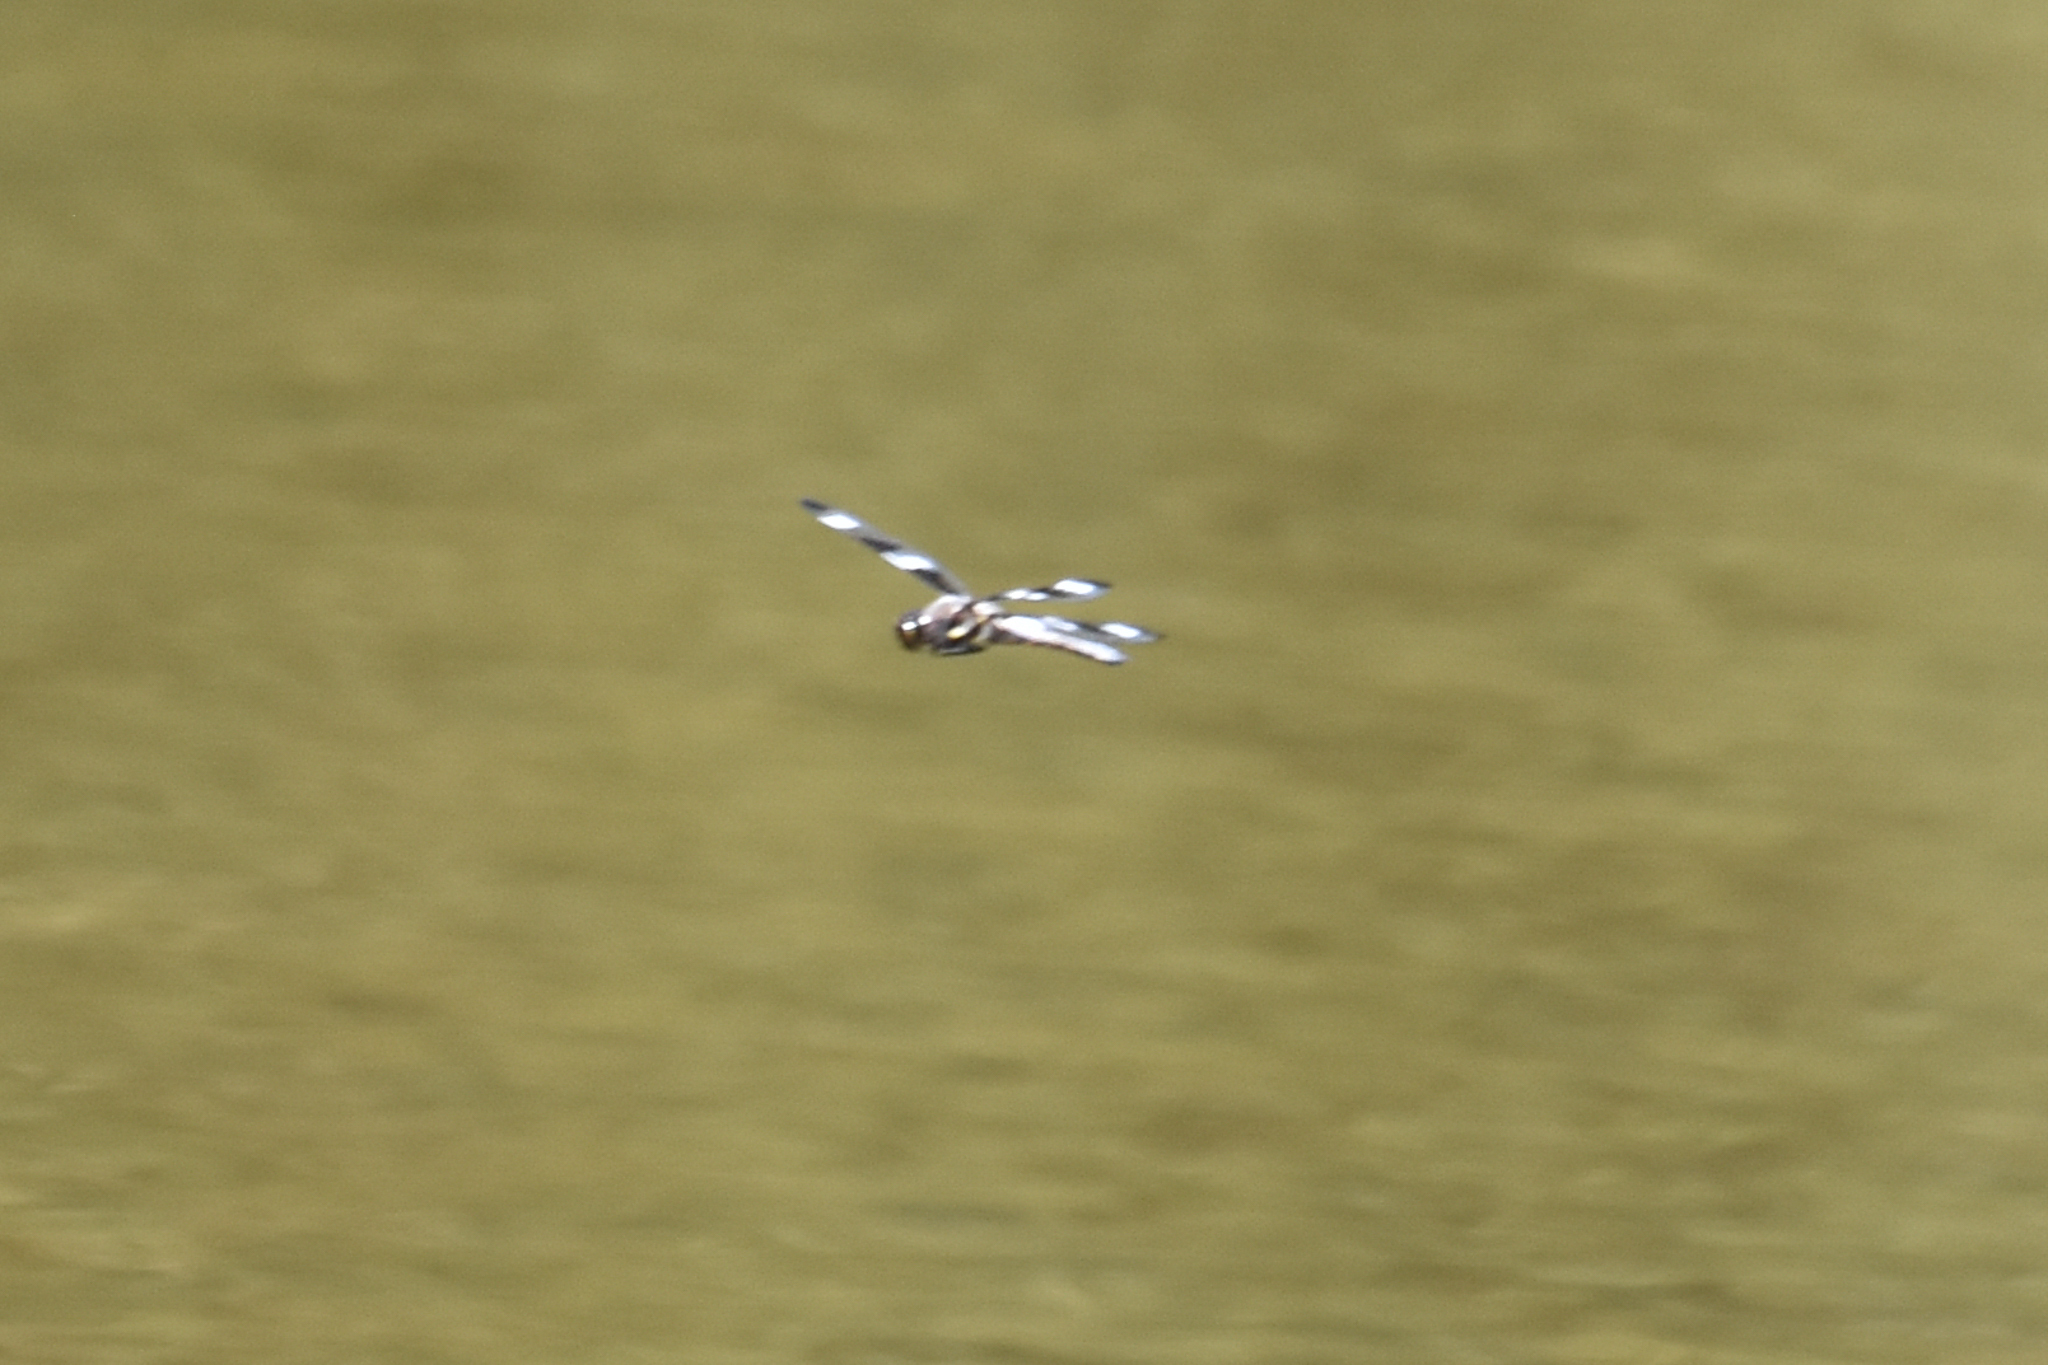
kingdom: Animalia
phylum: Arthropoda
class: Insecta
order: Odonata
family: Libellulidae
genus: Libellula
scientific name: Libellula pulchella
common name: Twelve-spotted skimmer
